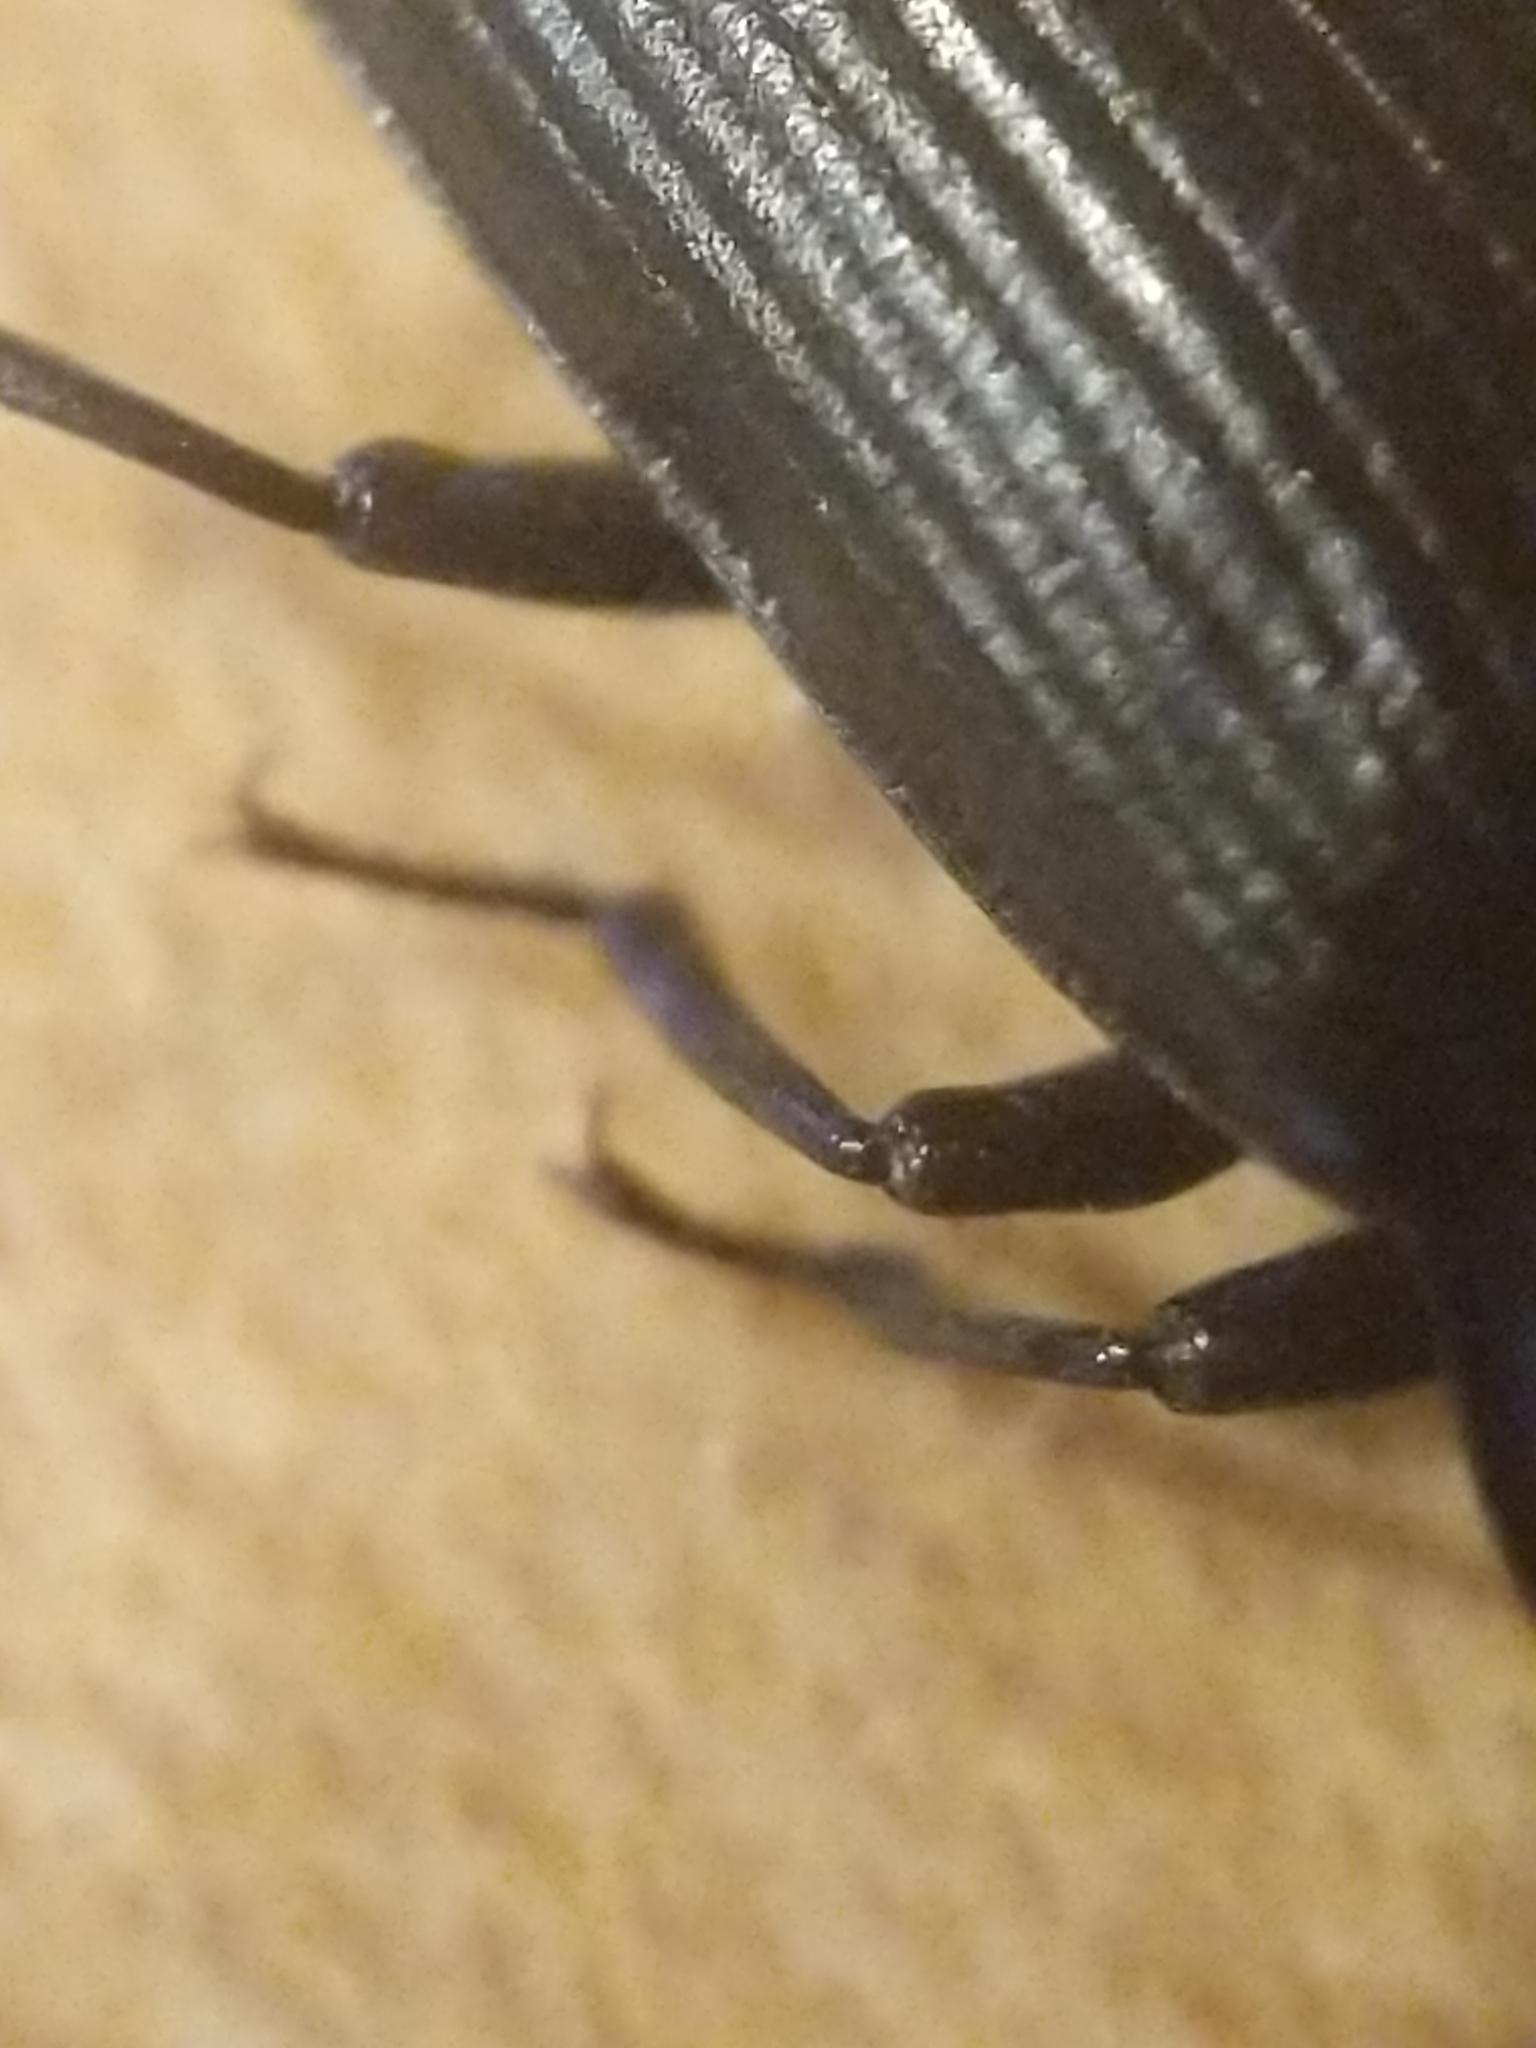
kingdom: Animalia
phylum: Arthropoda
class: Insecta
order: Coleoptera
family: Tenebrionidae
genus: Tenebrio
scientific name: Tenebrio molitor
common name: Hardback beetle
